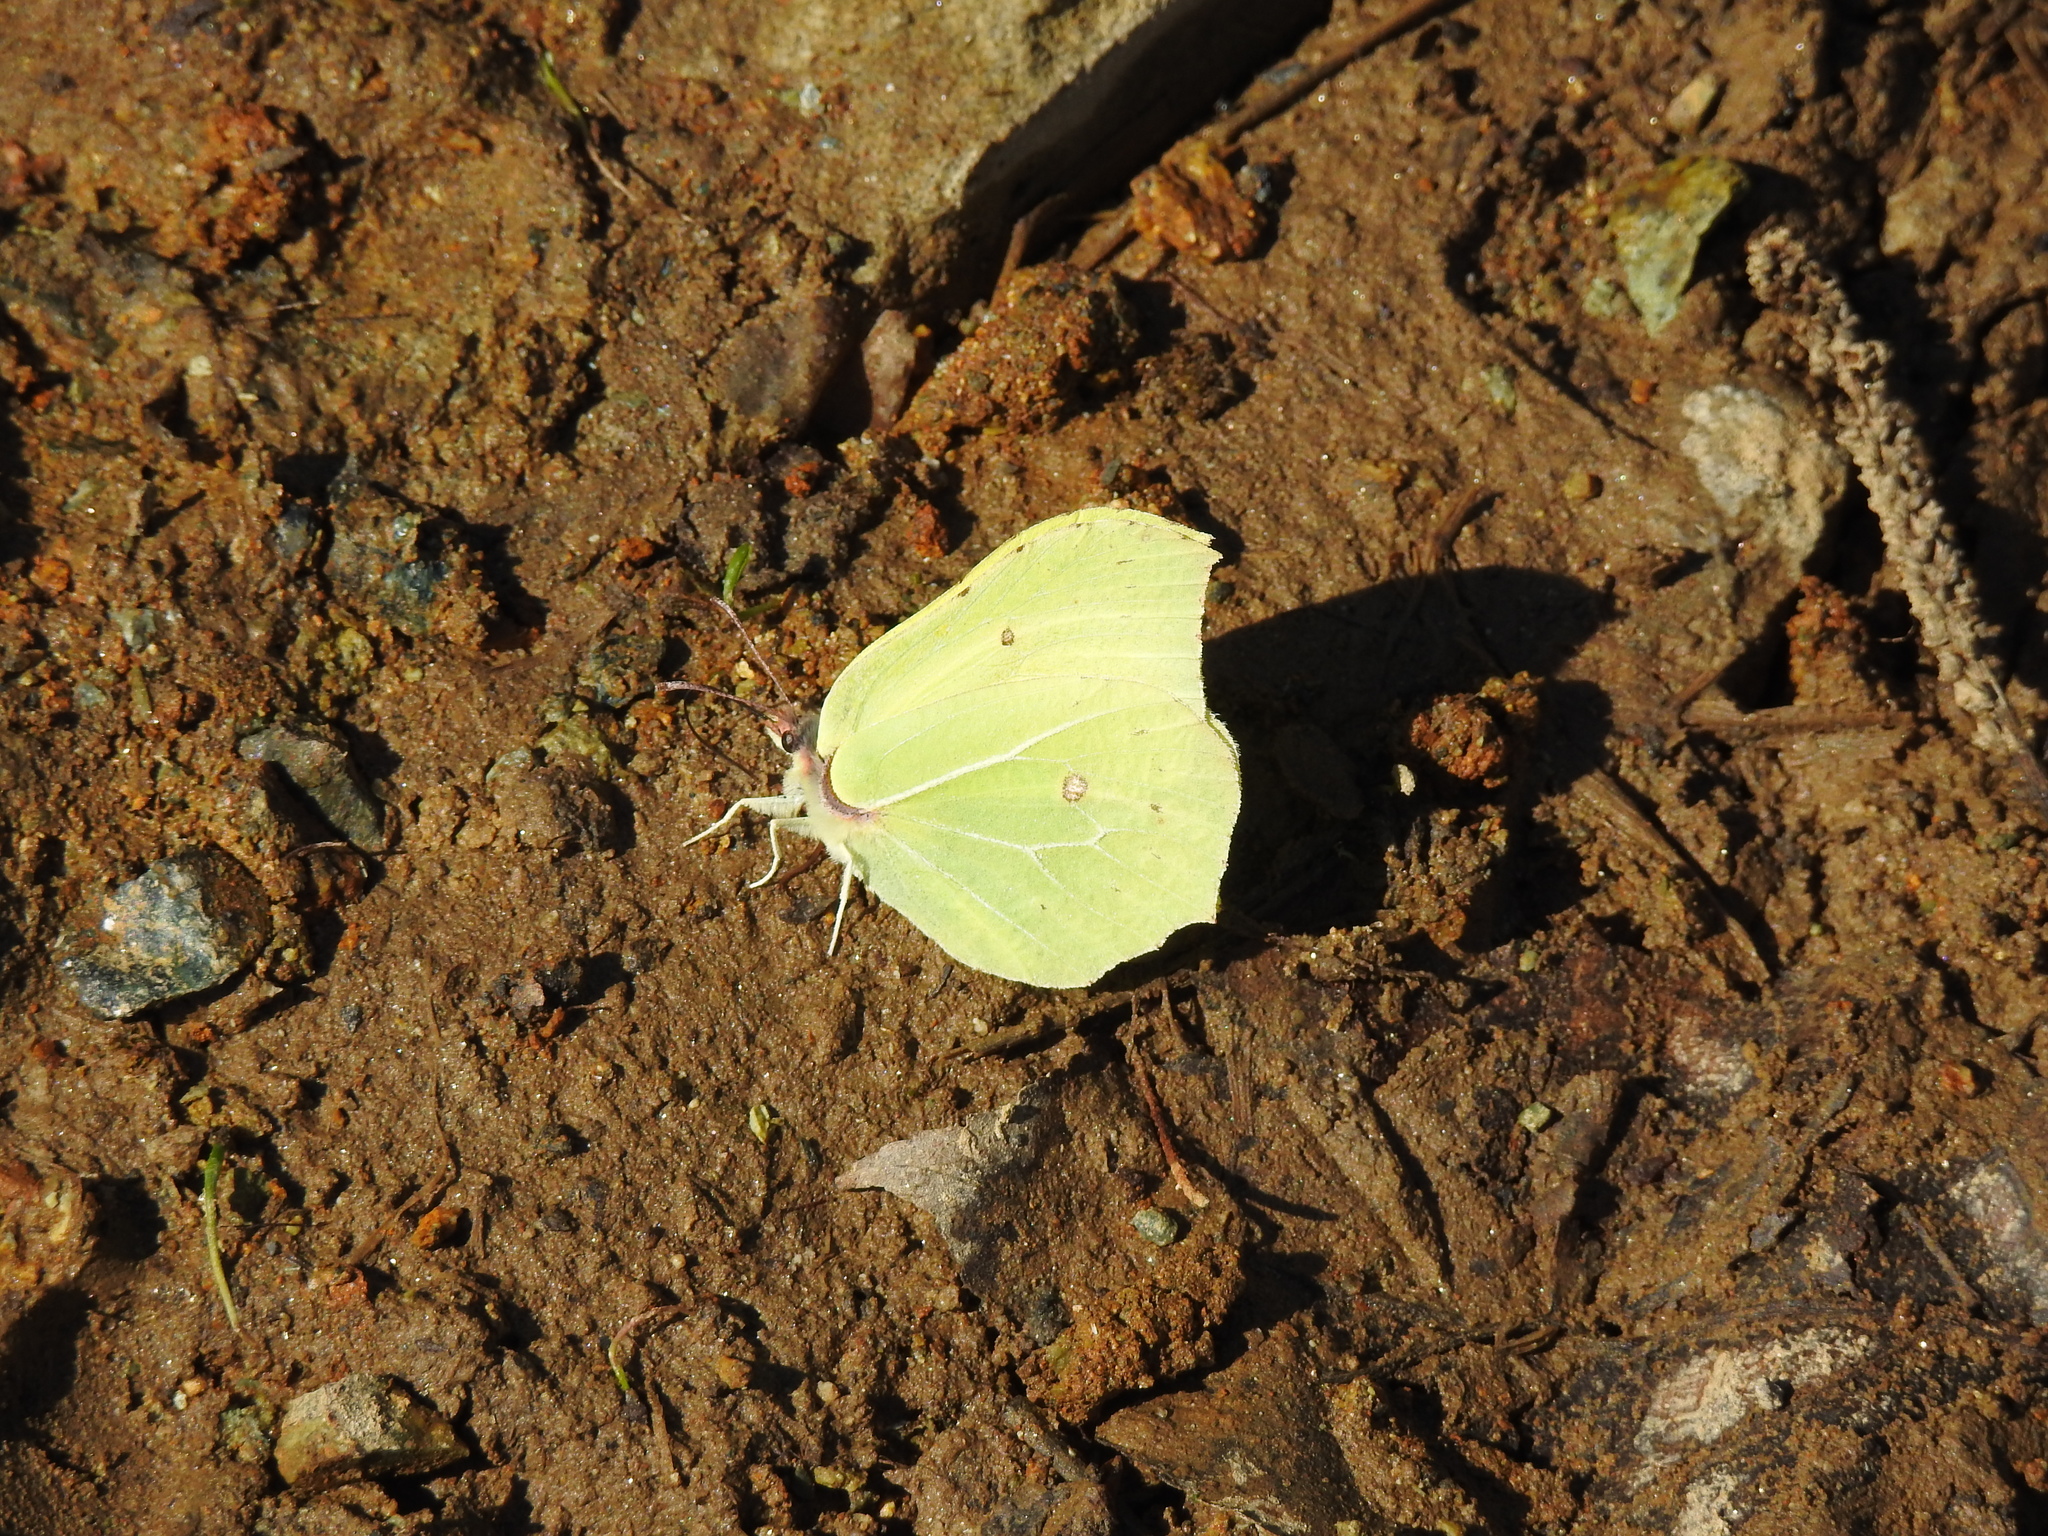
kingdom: Animalia
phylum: Arthropoda
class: Insecta
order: Lepidoptera
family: Pieridae
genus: Gonepteryx
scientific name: Gonepteryx rhamni
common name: Brimstone
